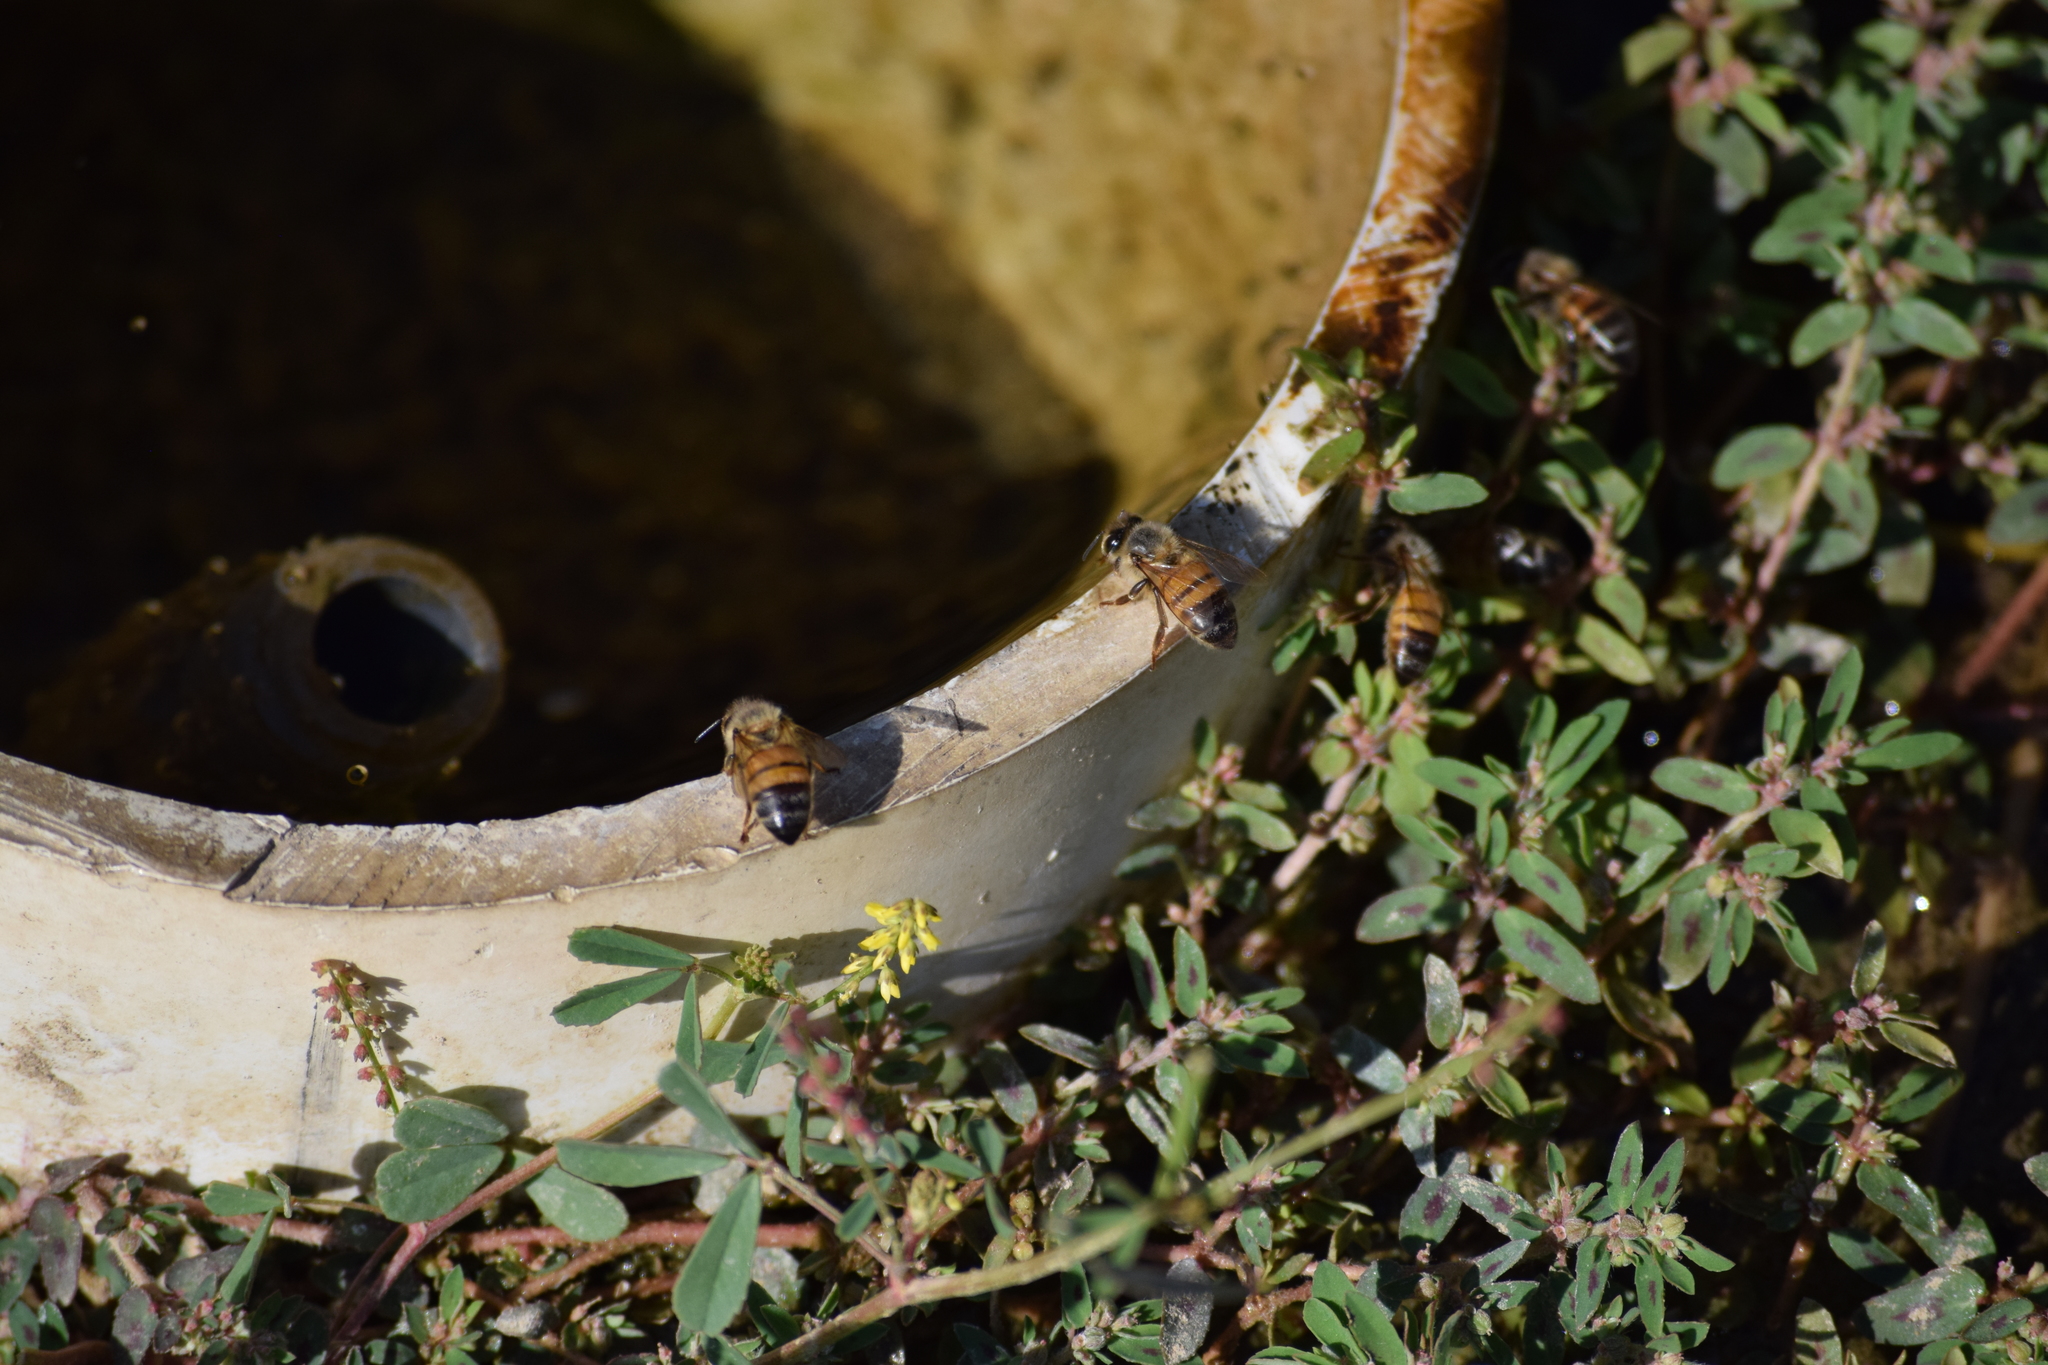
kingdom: Animalia
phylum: Arthropoda
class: Insecta
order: Hymenoptera
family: Apidae
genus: Apis
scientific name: Apis mellifera
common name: Honey bee
